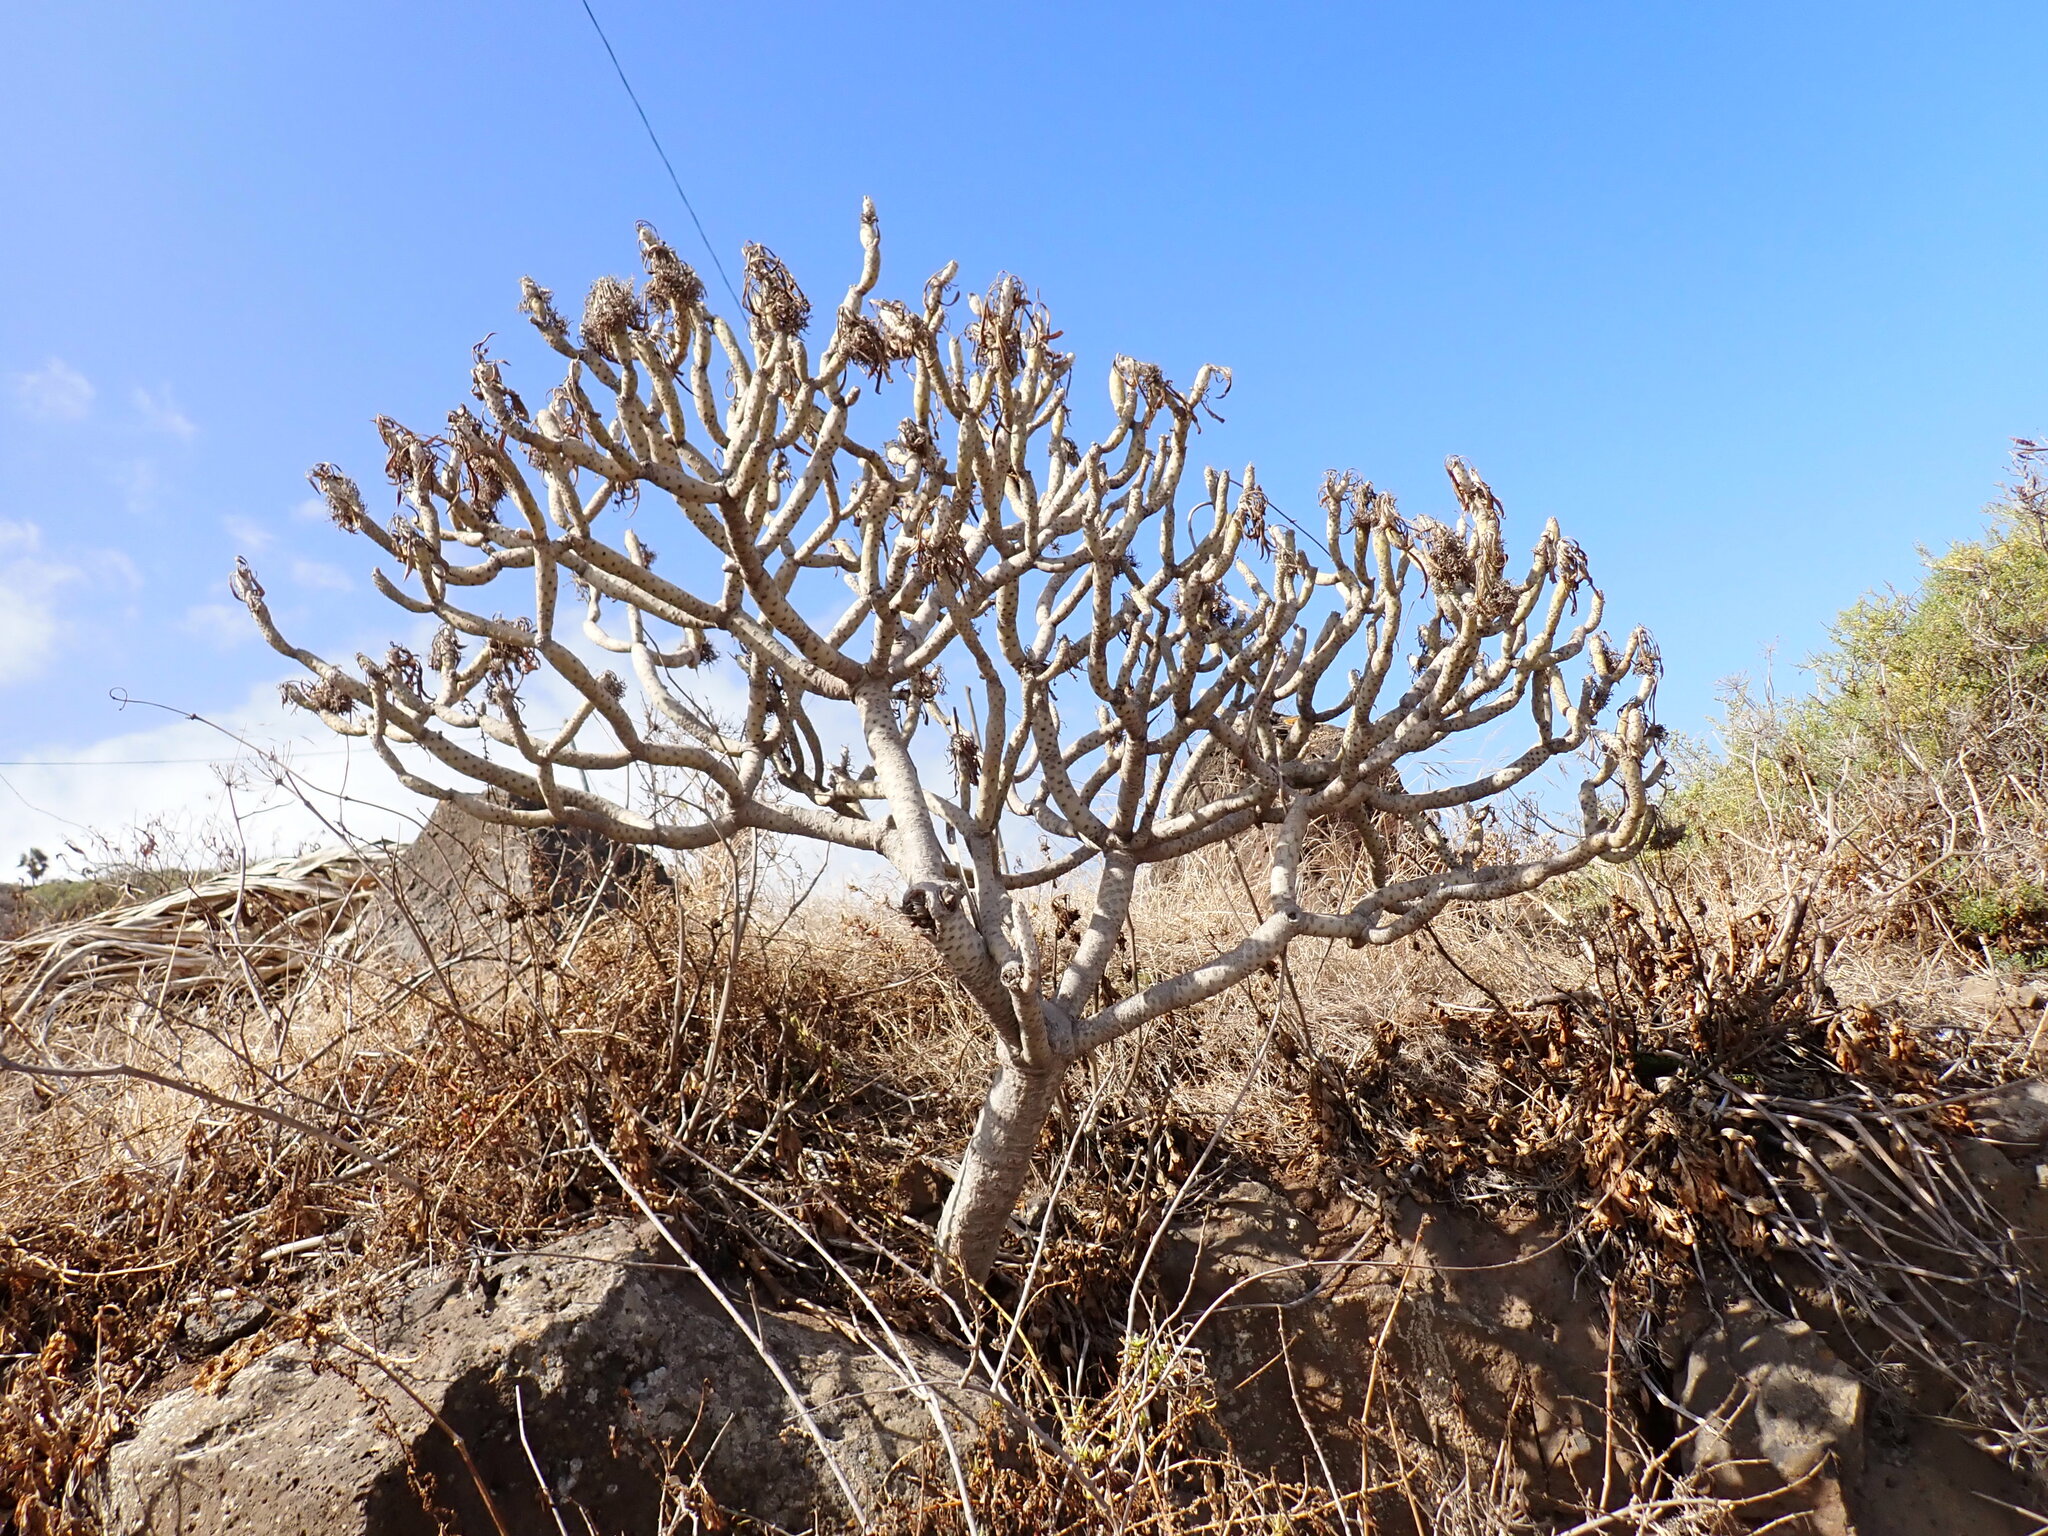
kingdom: Plantae
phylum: Tracheophyta
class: Magnoliopsida
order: Asterales
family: Asteraceae
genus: Kleinia
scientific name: Kleinia neriifolia
